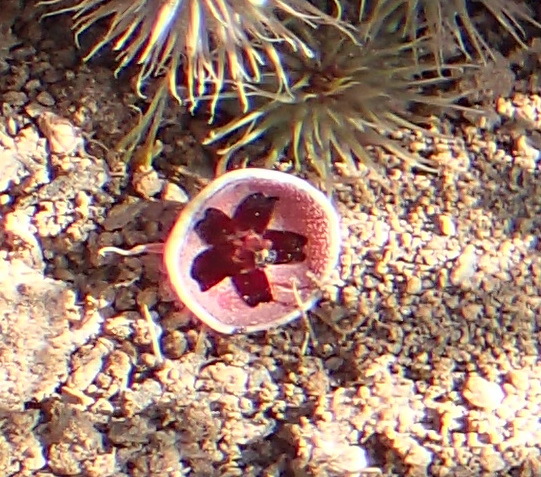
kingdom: Plantae
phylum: Tracheophyta
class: Magnoliopsida
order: Gentianales
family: Apocynaceae
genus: Ceropegia
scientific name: Ceropegia pillansii
